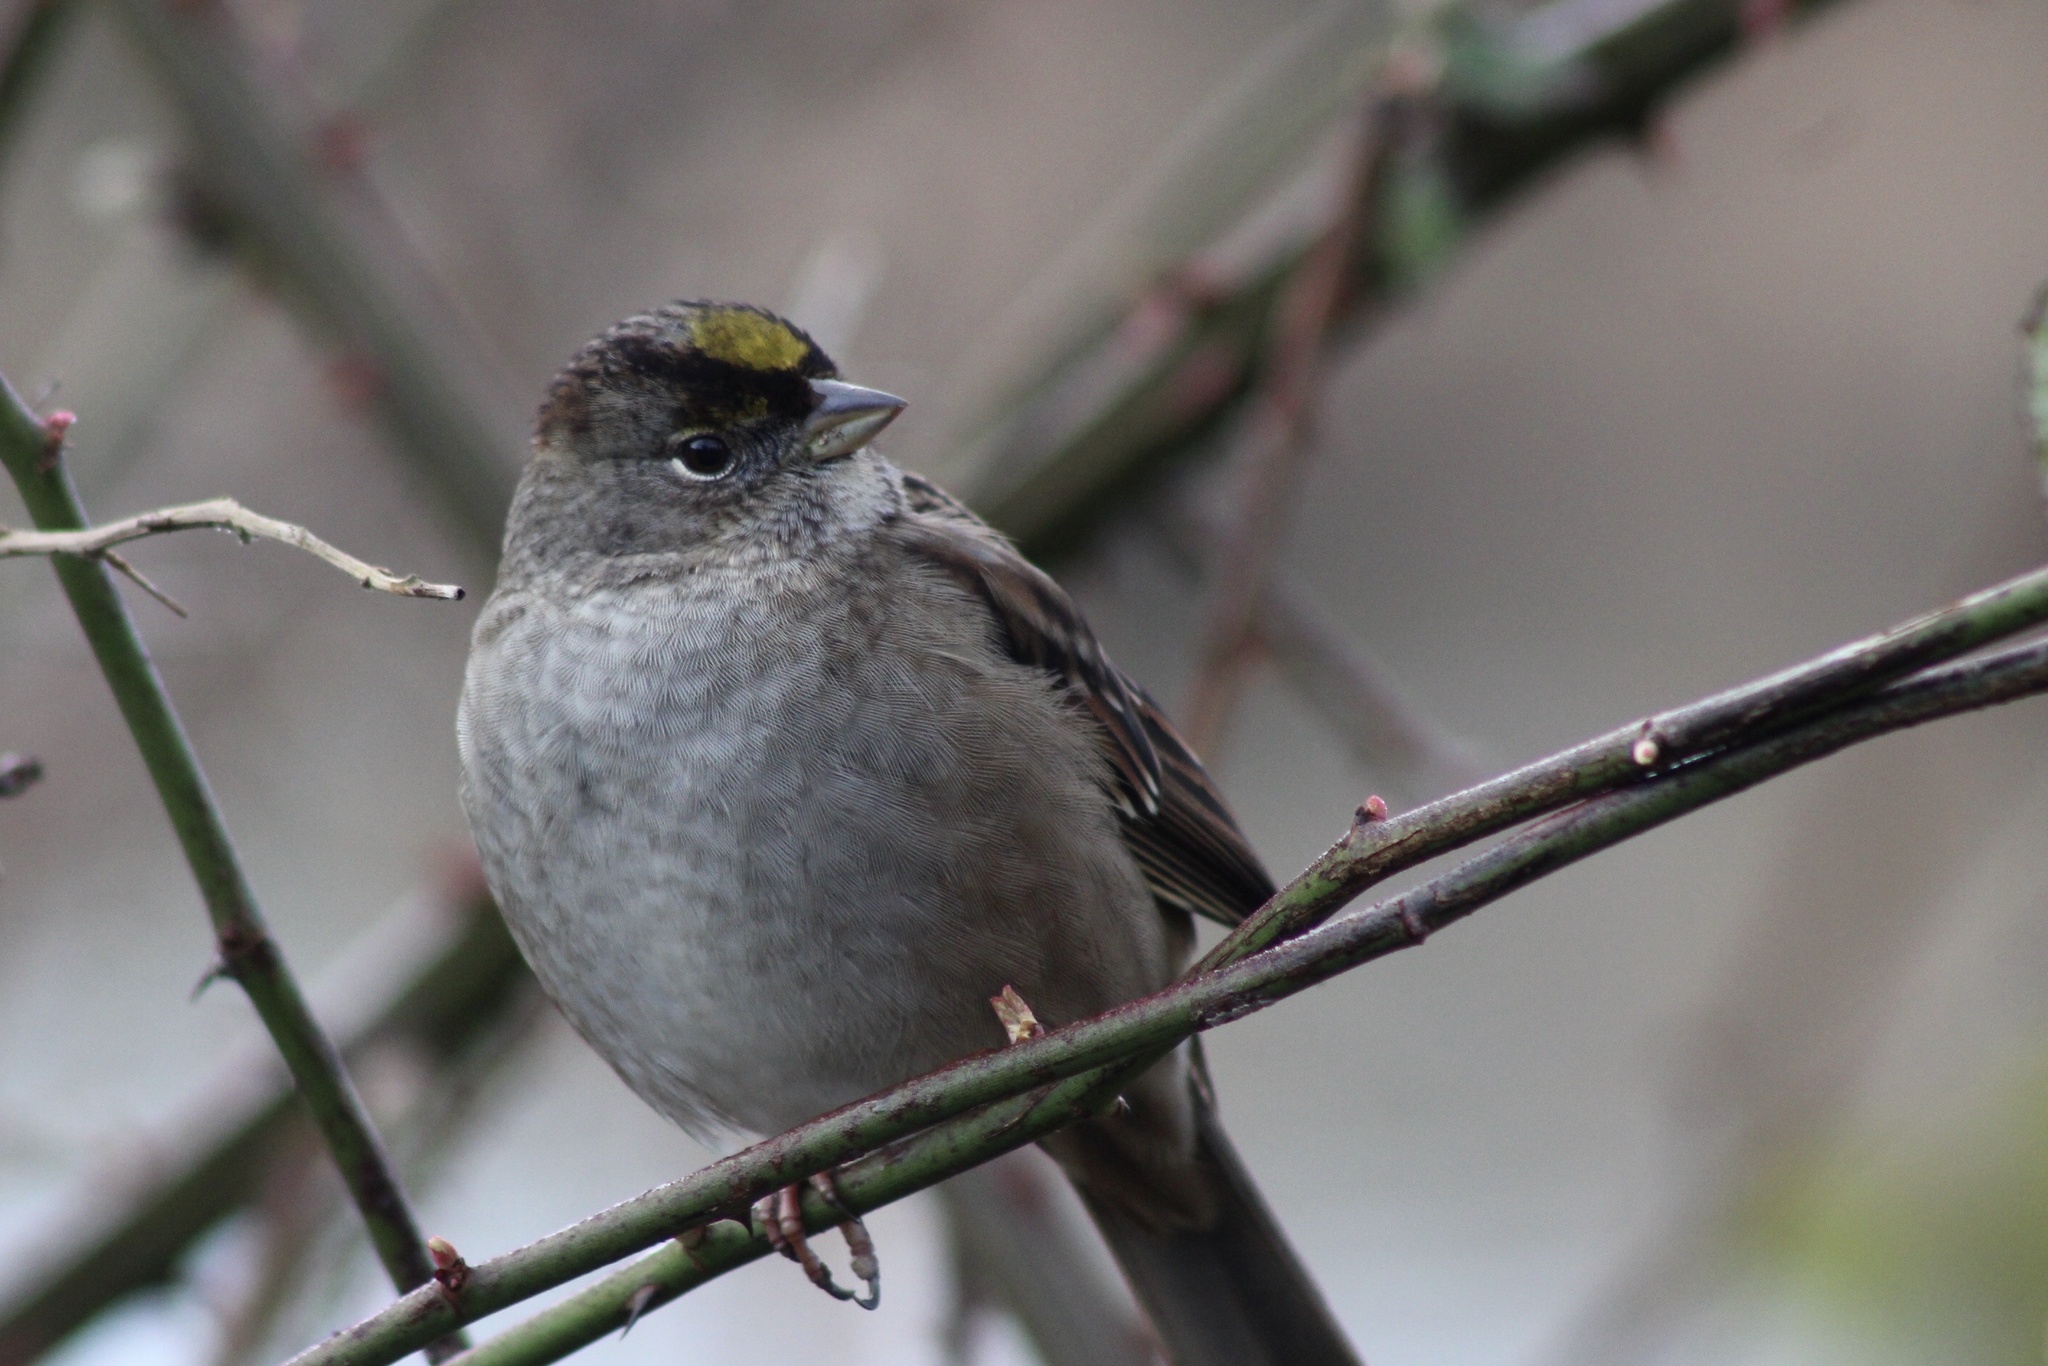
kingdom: Animalia
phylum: Chordata
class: Aves
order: Passeriformes
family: Passerellidae
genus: Zonotrichia
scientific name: Zonotrichia atricapilla
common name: Golden-crowned sparrow
